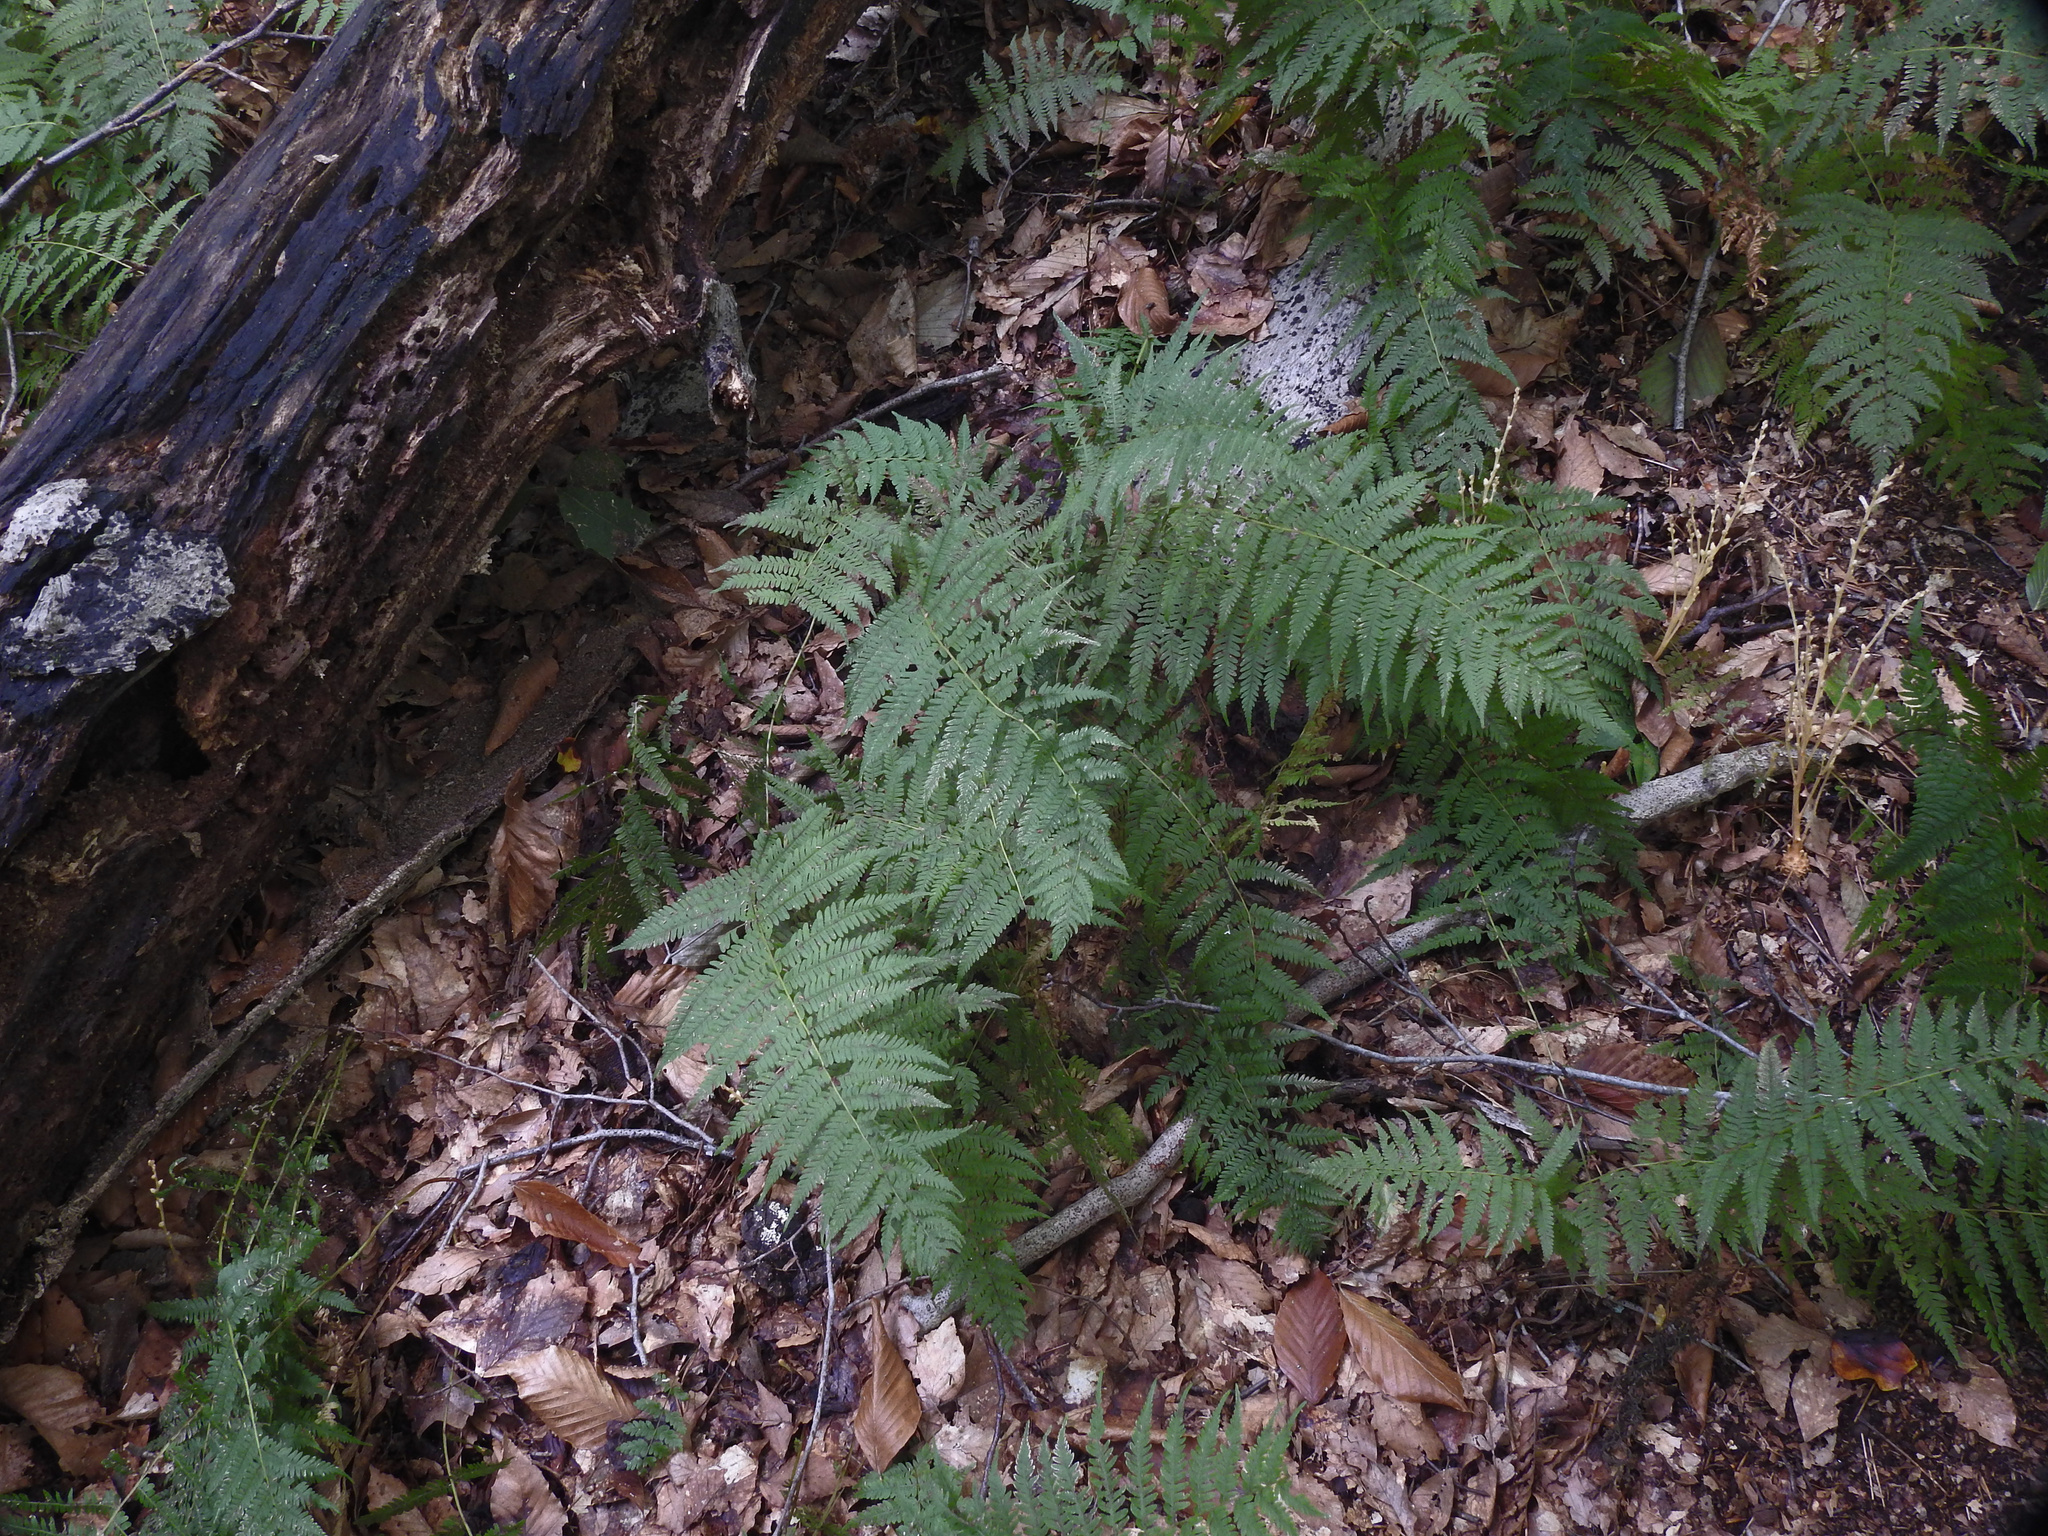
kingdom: Plantae
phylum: Tracheophyta
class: Polypodiopsida
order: Polypodiales
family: Thelypteridaceae
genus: Amauropelta
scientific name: Amauropelta noveboracensis
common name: New york fern
